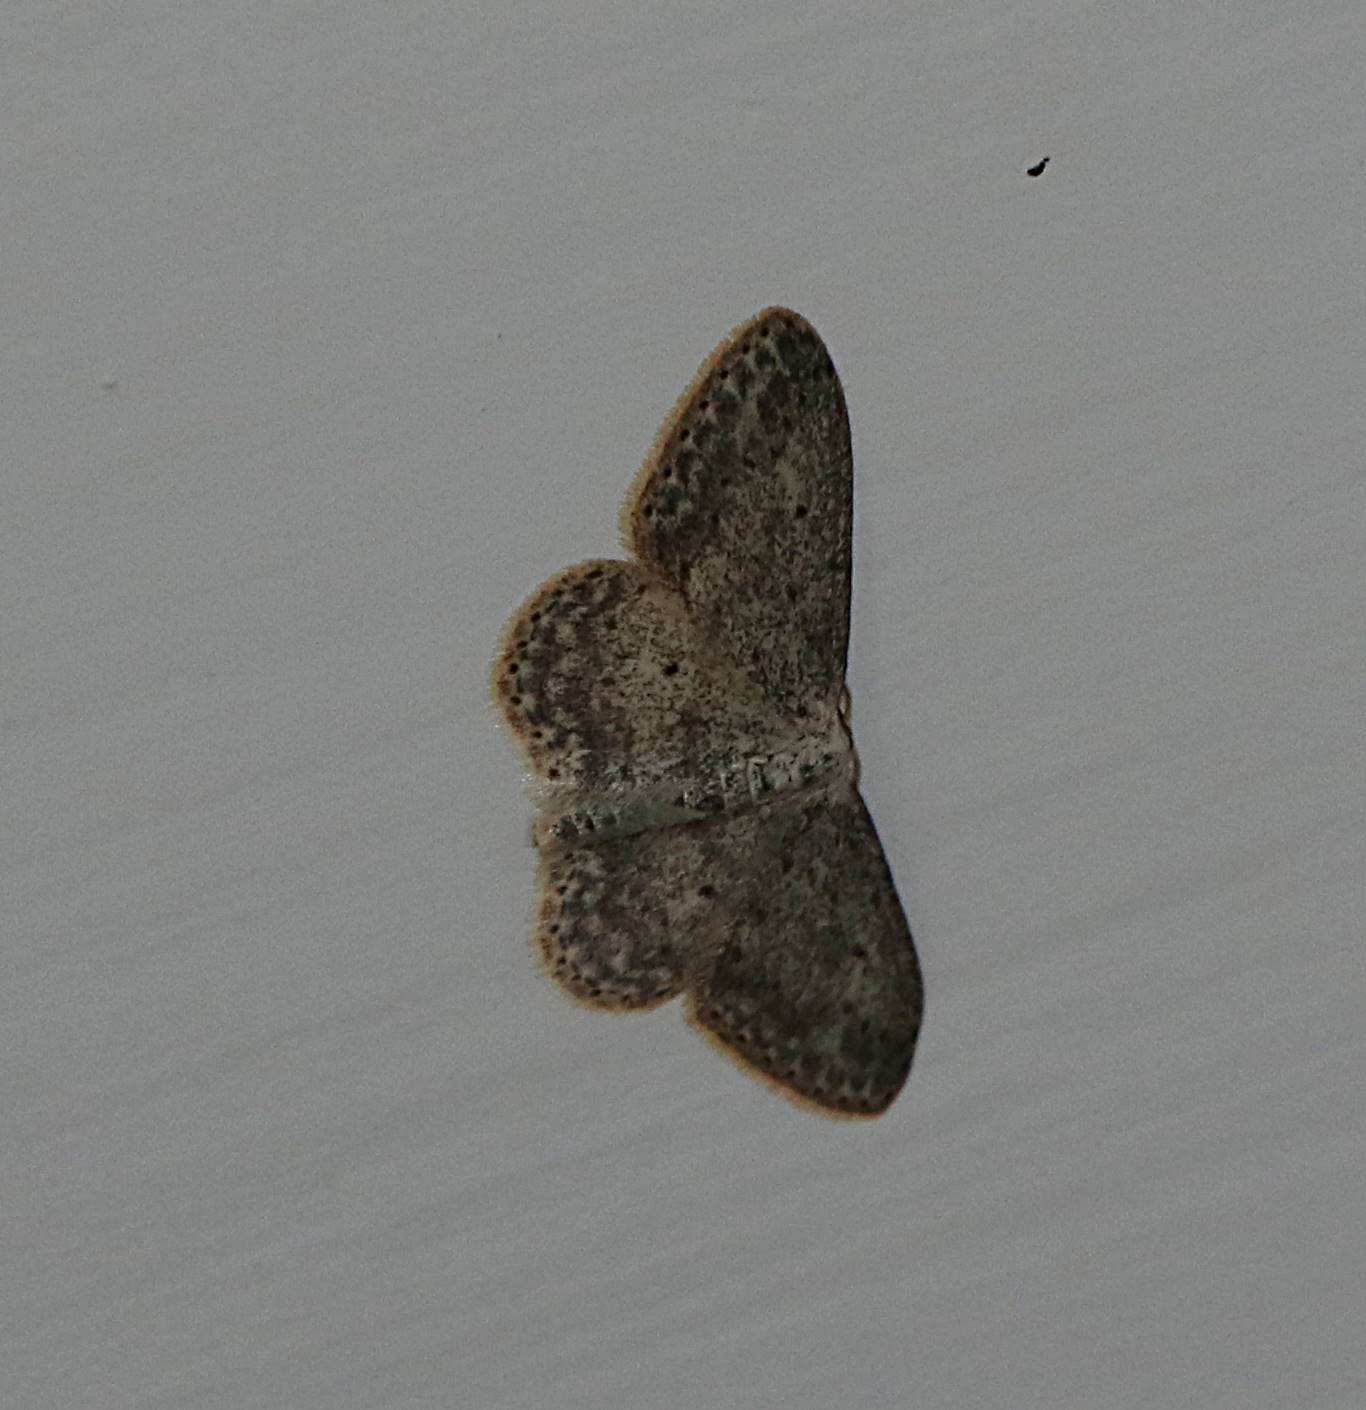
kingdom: Animalia
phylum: Arthropoda
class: Insecta
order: Lepidoptera
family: Geometridae
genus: Idaea
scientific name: Idaea seriata
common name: Small dusty wave
